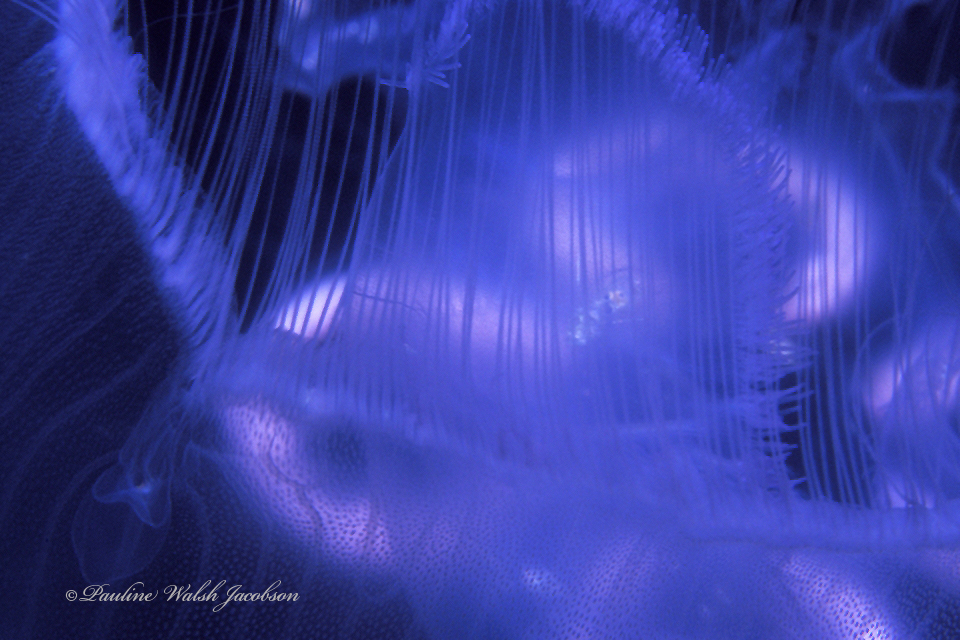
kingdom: Animalia
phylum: Cnidaria
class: Scyphozoa
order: Semaeostomeae
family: Ulmaridae
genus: Aurelia
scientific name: Aurelia marginalis
